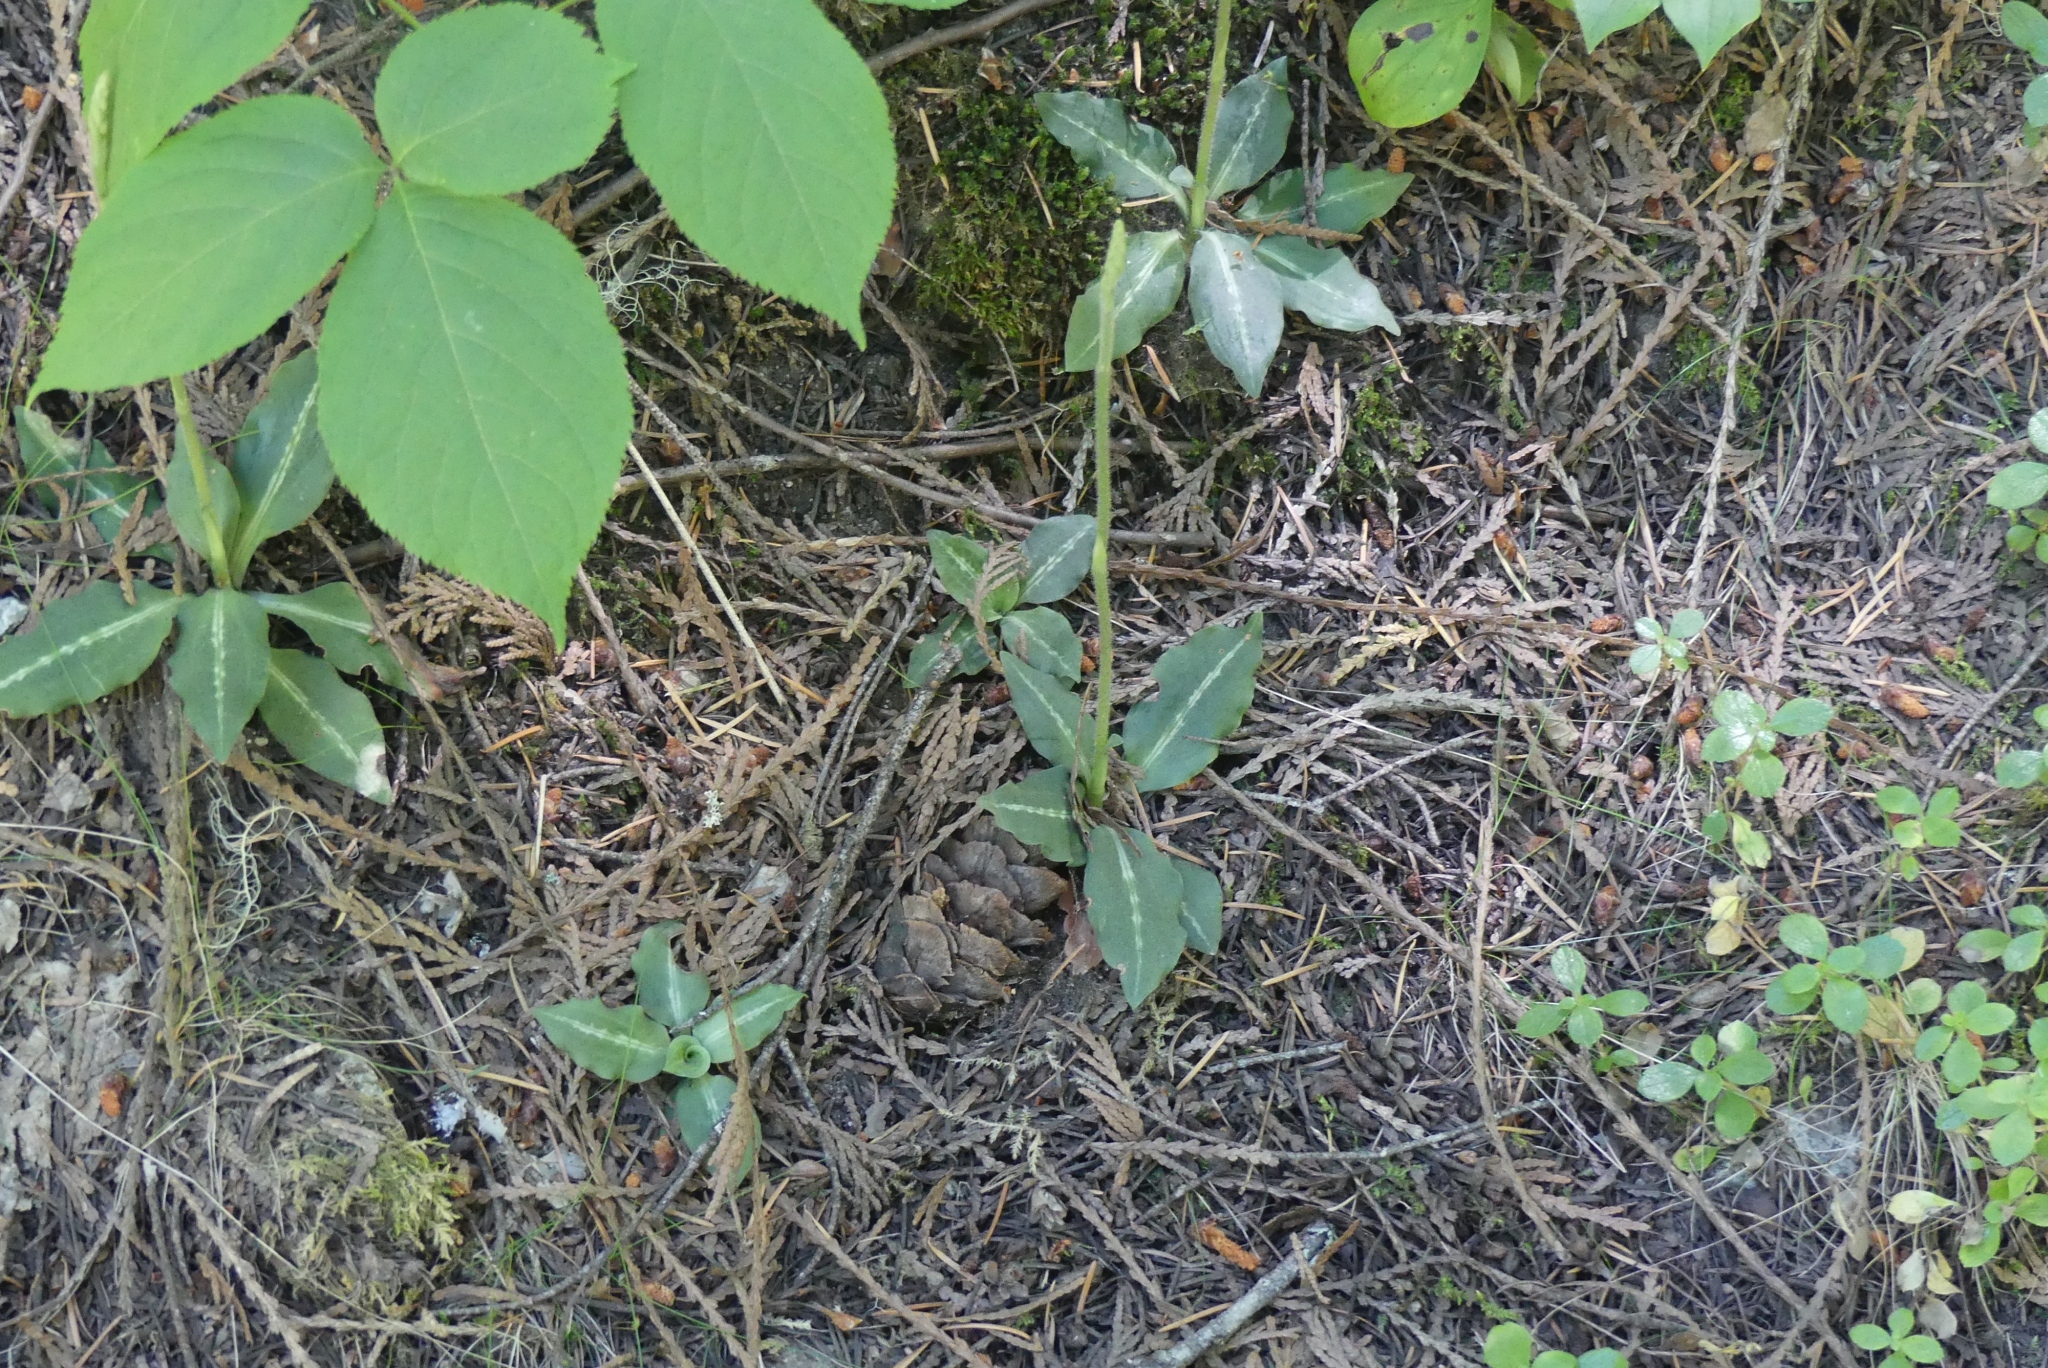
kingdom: Plantae
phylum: Tracheophyta
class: Liliopsida
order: Asparagales
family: Orchidaceae
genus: Goodyera
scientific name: Goodyera oblongifolia
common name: Giant rattlesnake-plantain
